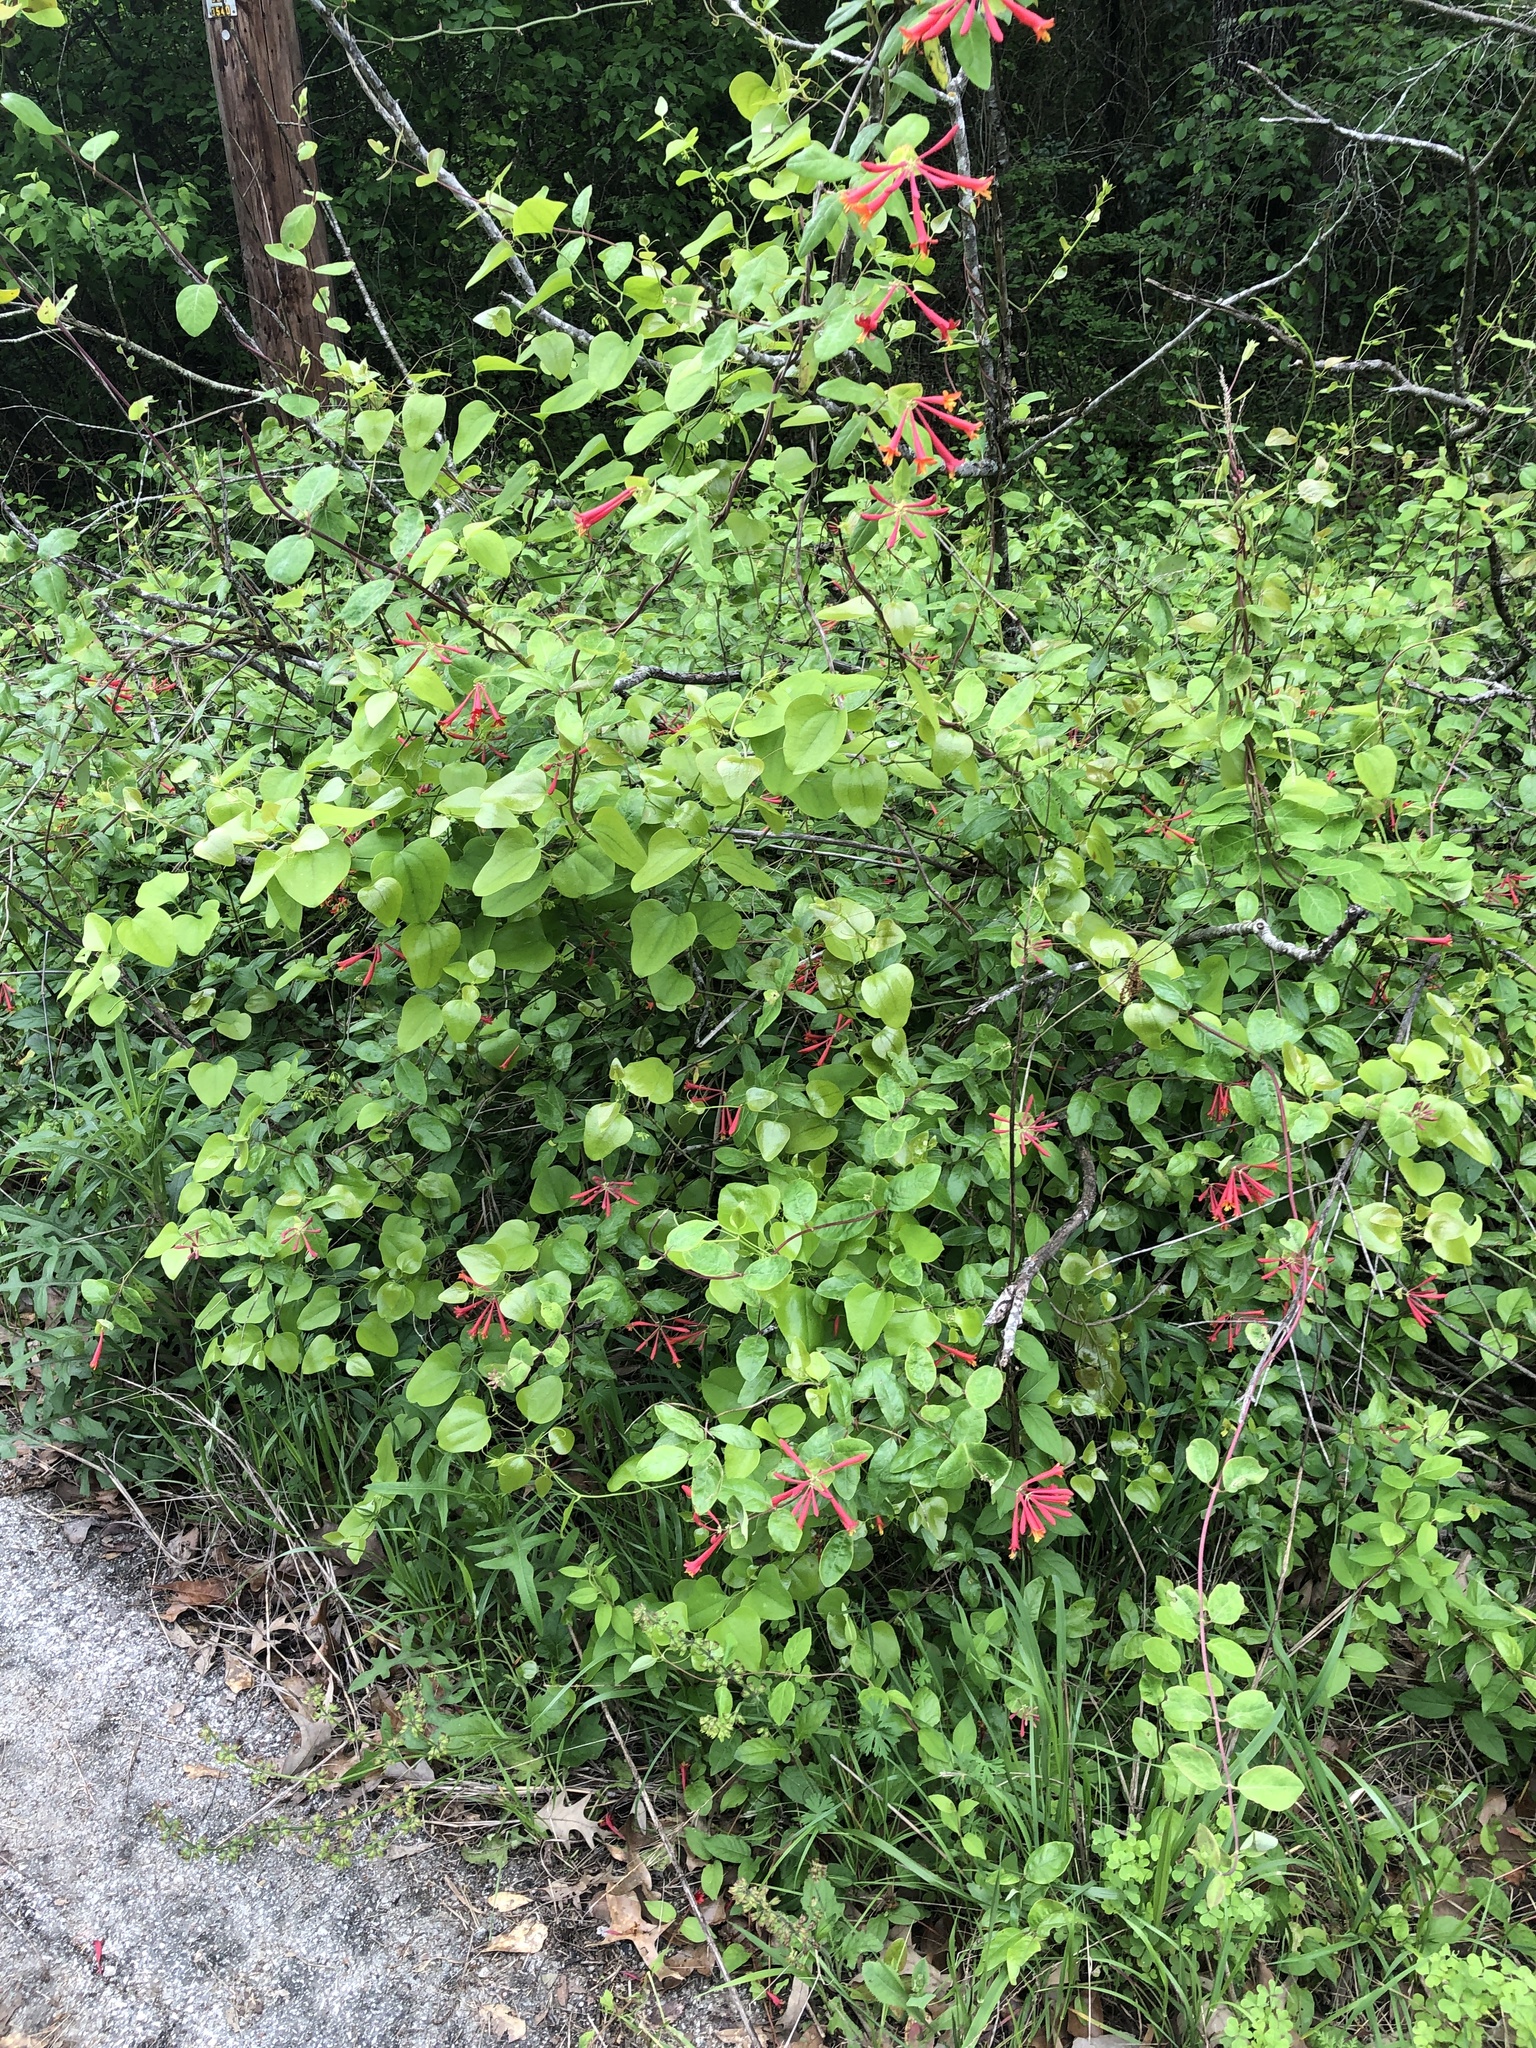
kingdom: Plantae
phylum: Tracheophyta
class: Magnoliopsida
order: Dipsacales
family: Caprifoliaceae
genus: Lonicera
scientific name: Lonicera sempervirens
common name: Coral honeysuckle
